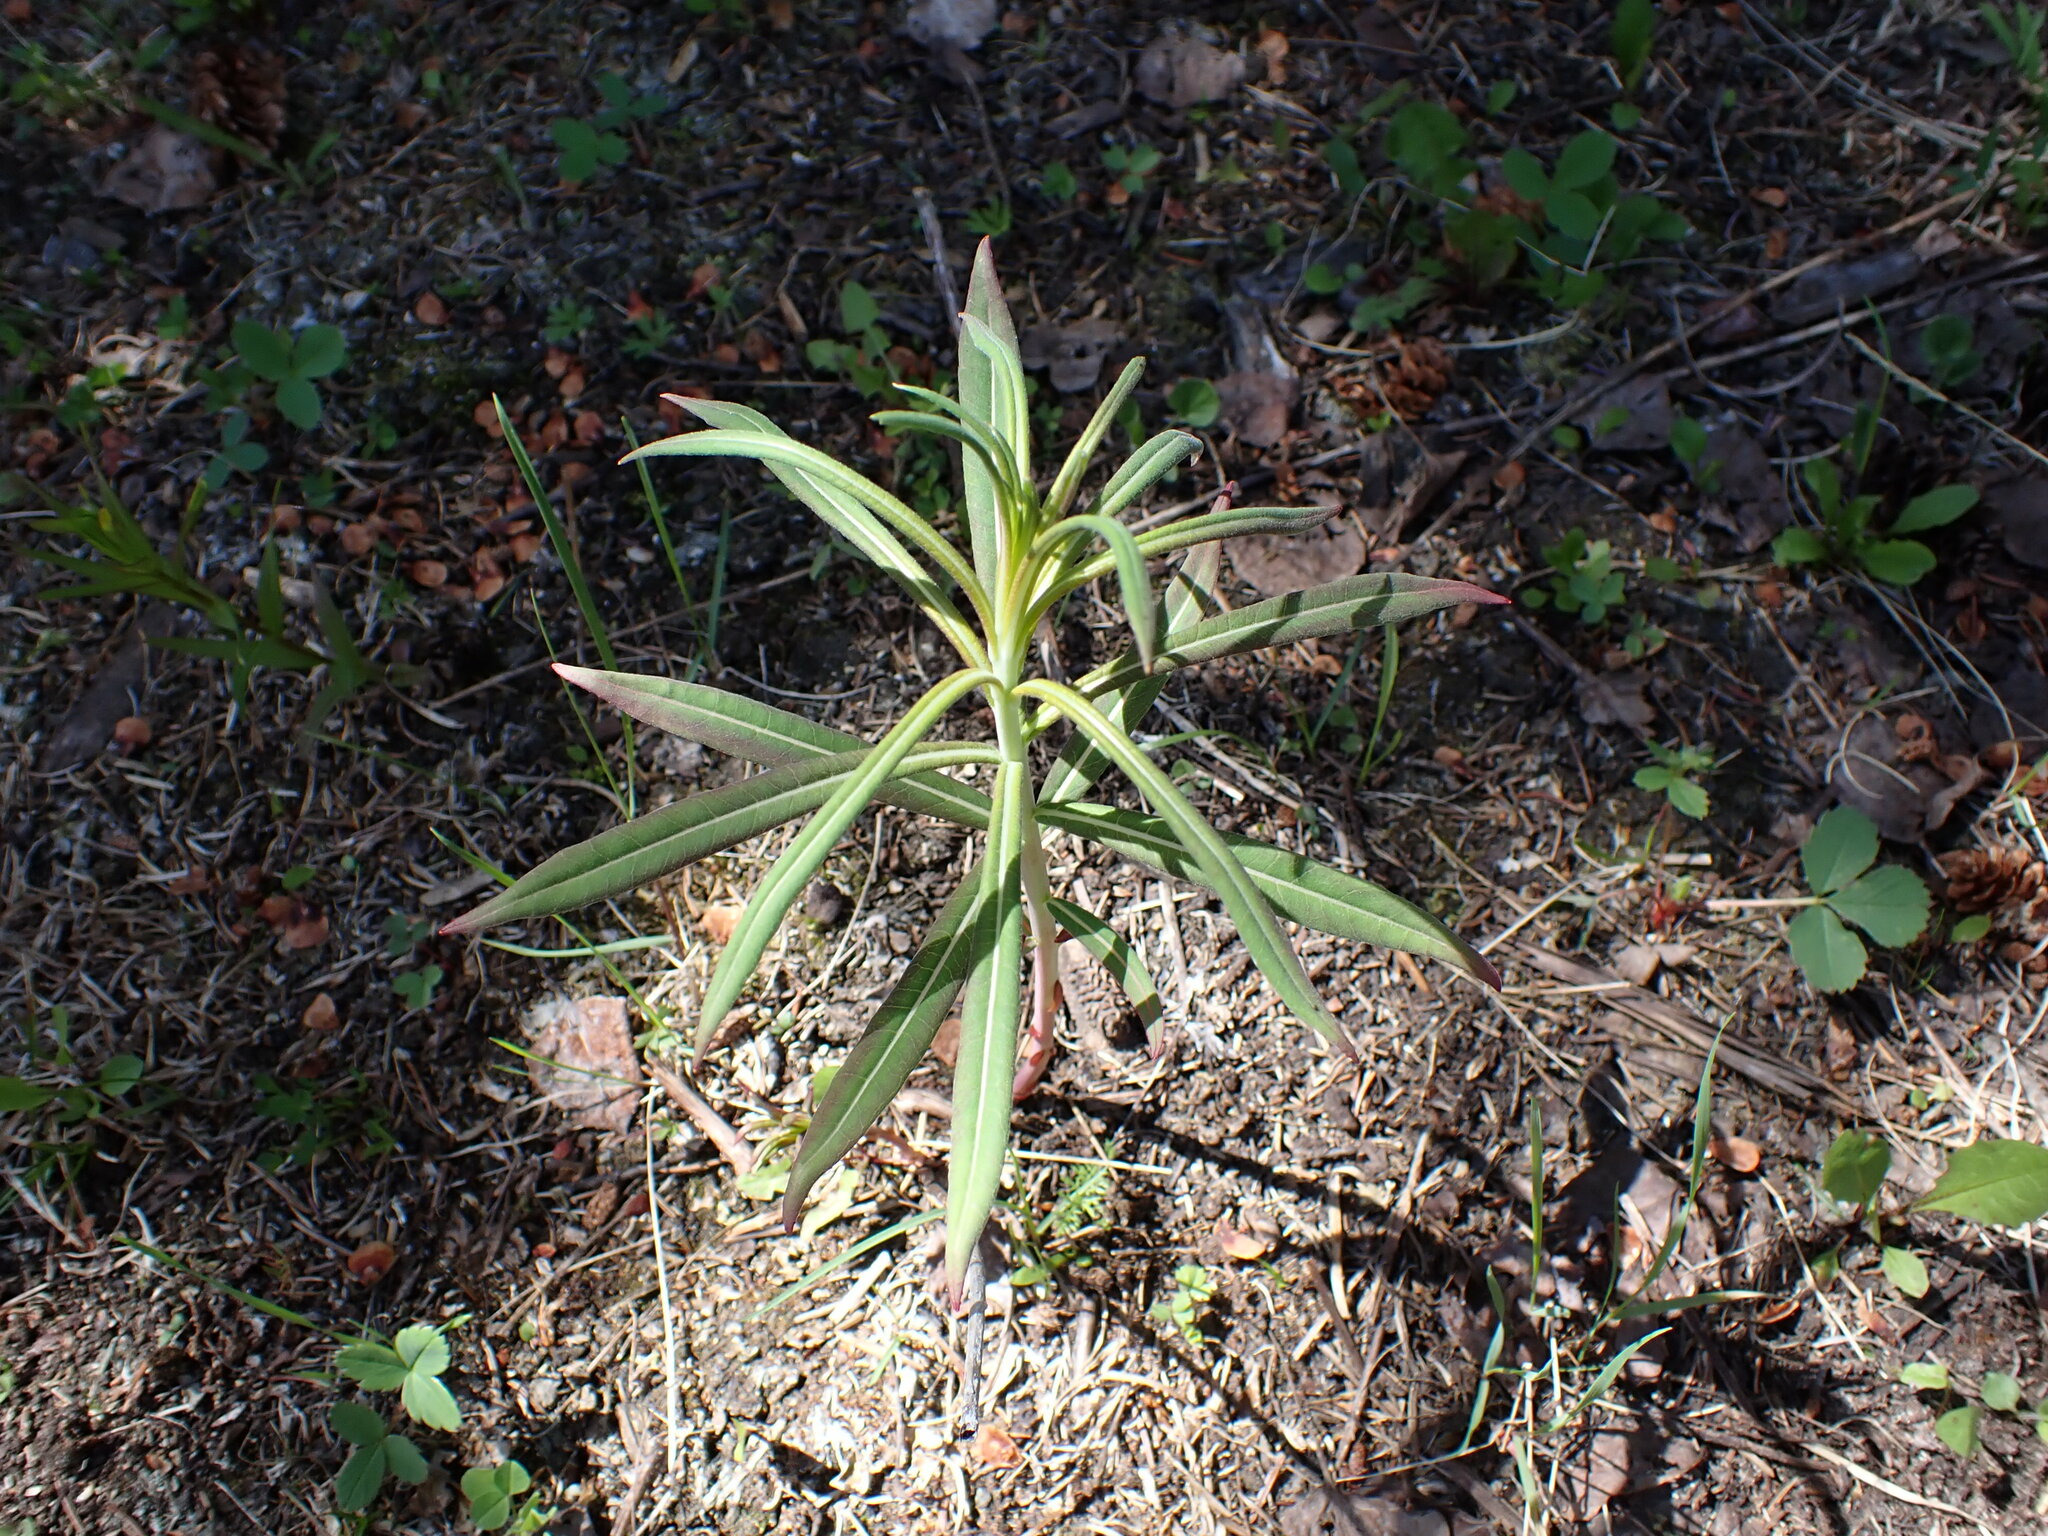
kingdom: Plantae
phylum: Tracheophyta
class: Magnoliopsida
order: Myrtales
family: Onagraceae
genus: Chamaenerion
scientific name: Chamaenerion angustifolium
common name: Fireweed
